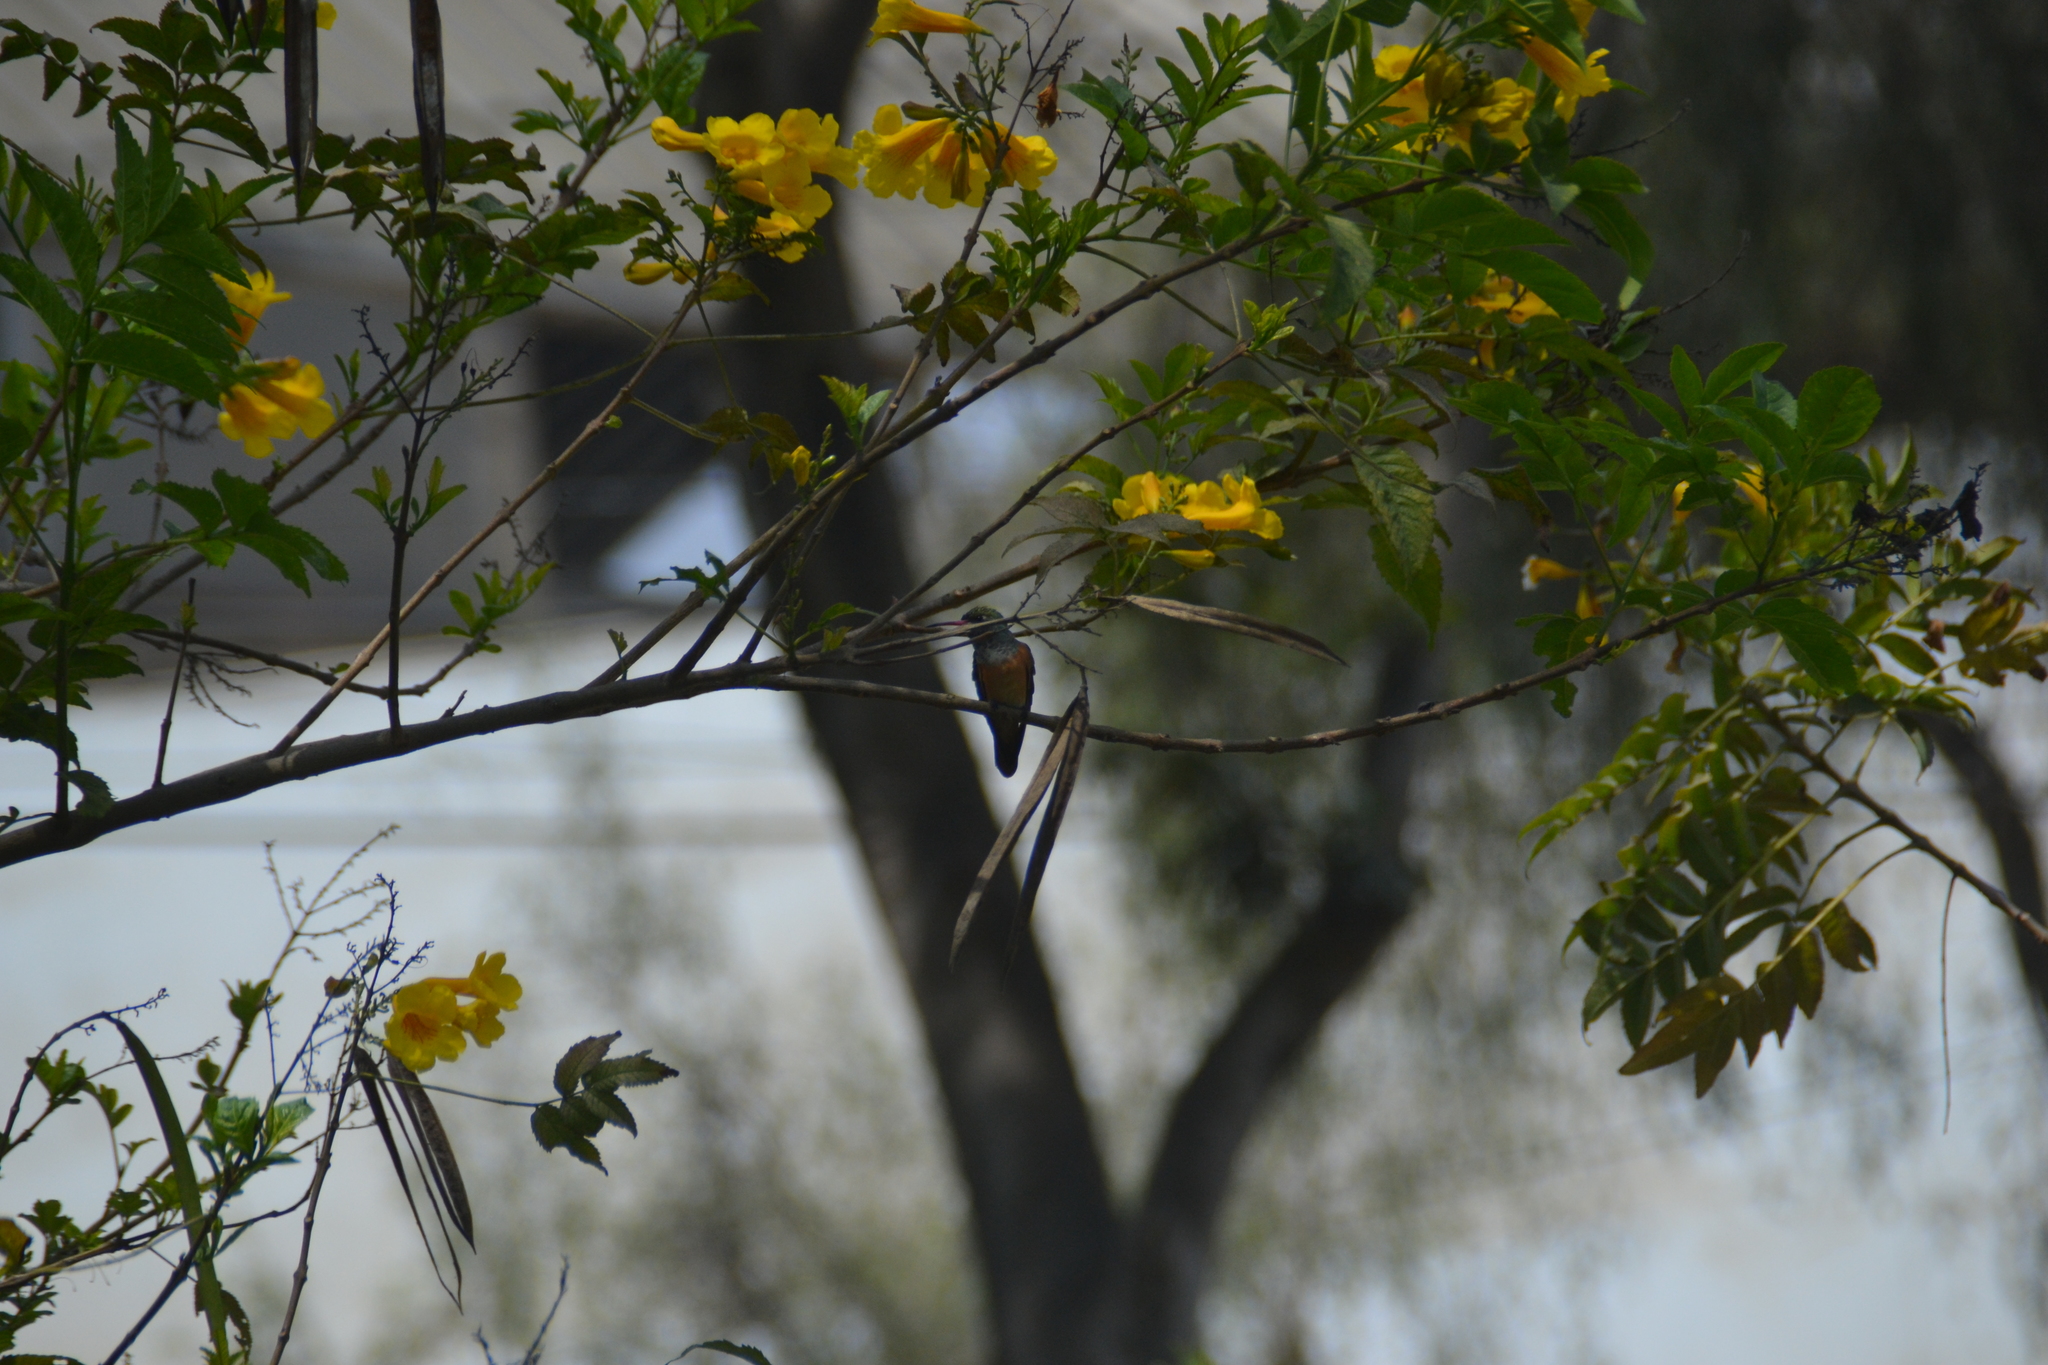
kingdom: Animalia
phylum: Chordata
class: Aves
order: Apodiformes
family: Trochilidae
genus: Amazilis
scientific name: Amazilis amazilia
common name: Amazilia hummingbird
